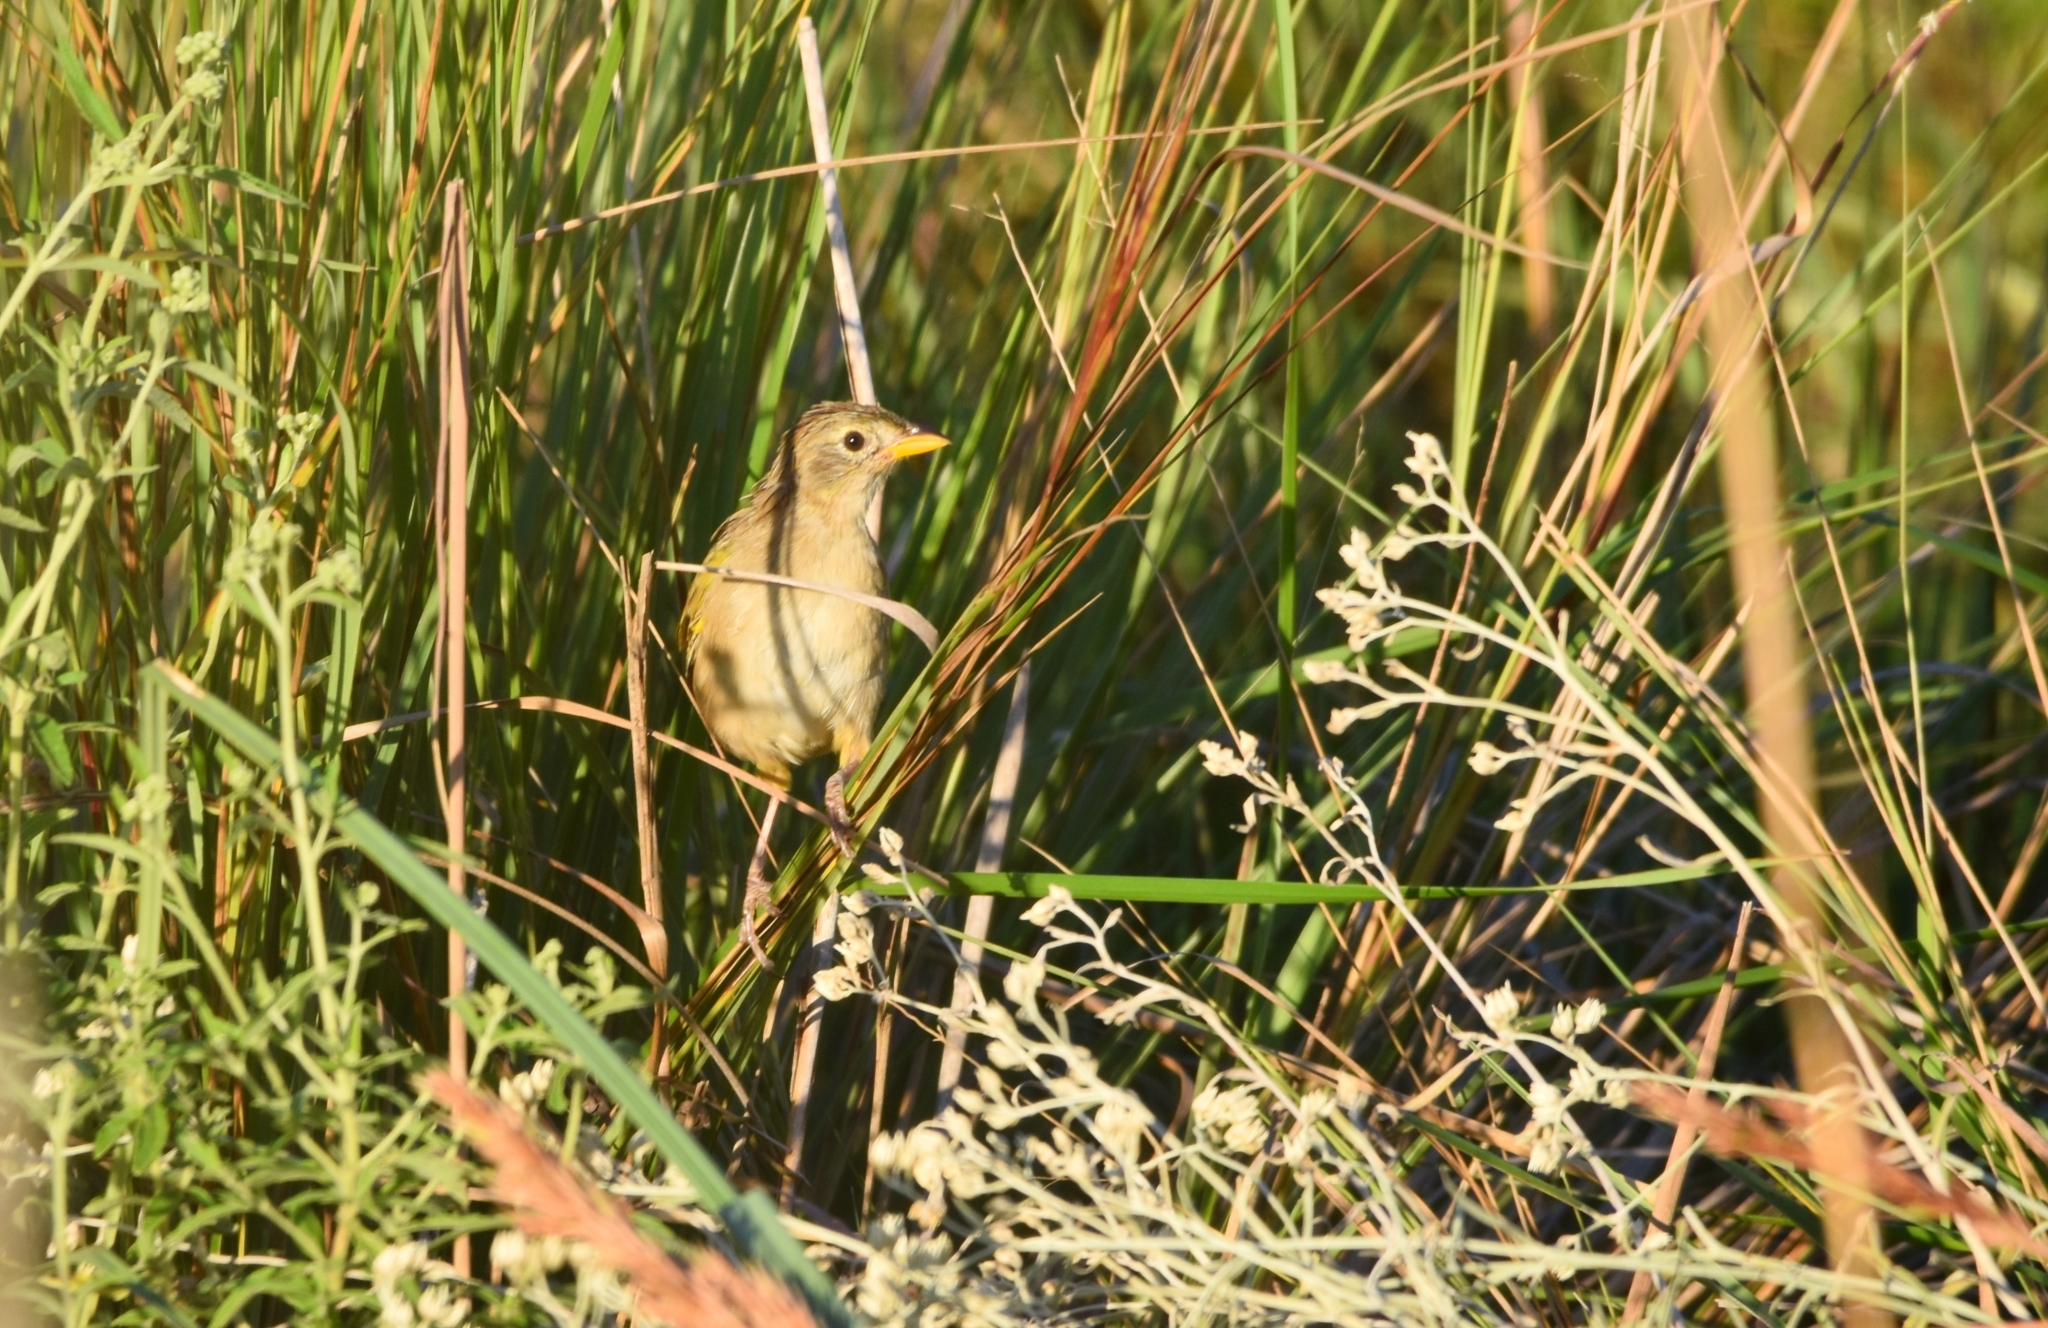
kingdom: Animalia
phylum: Chordata
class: Aves
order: Passeriformes
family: Thraupidae
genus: Emberizoides
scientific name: Emberizoides herbicola
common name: Wedge-tailed grass-finch
